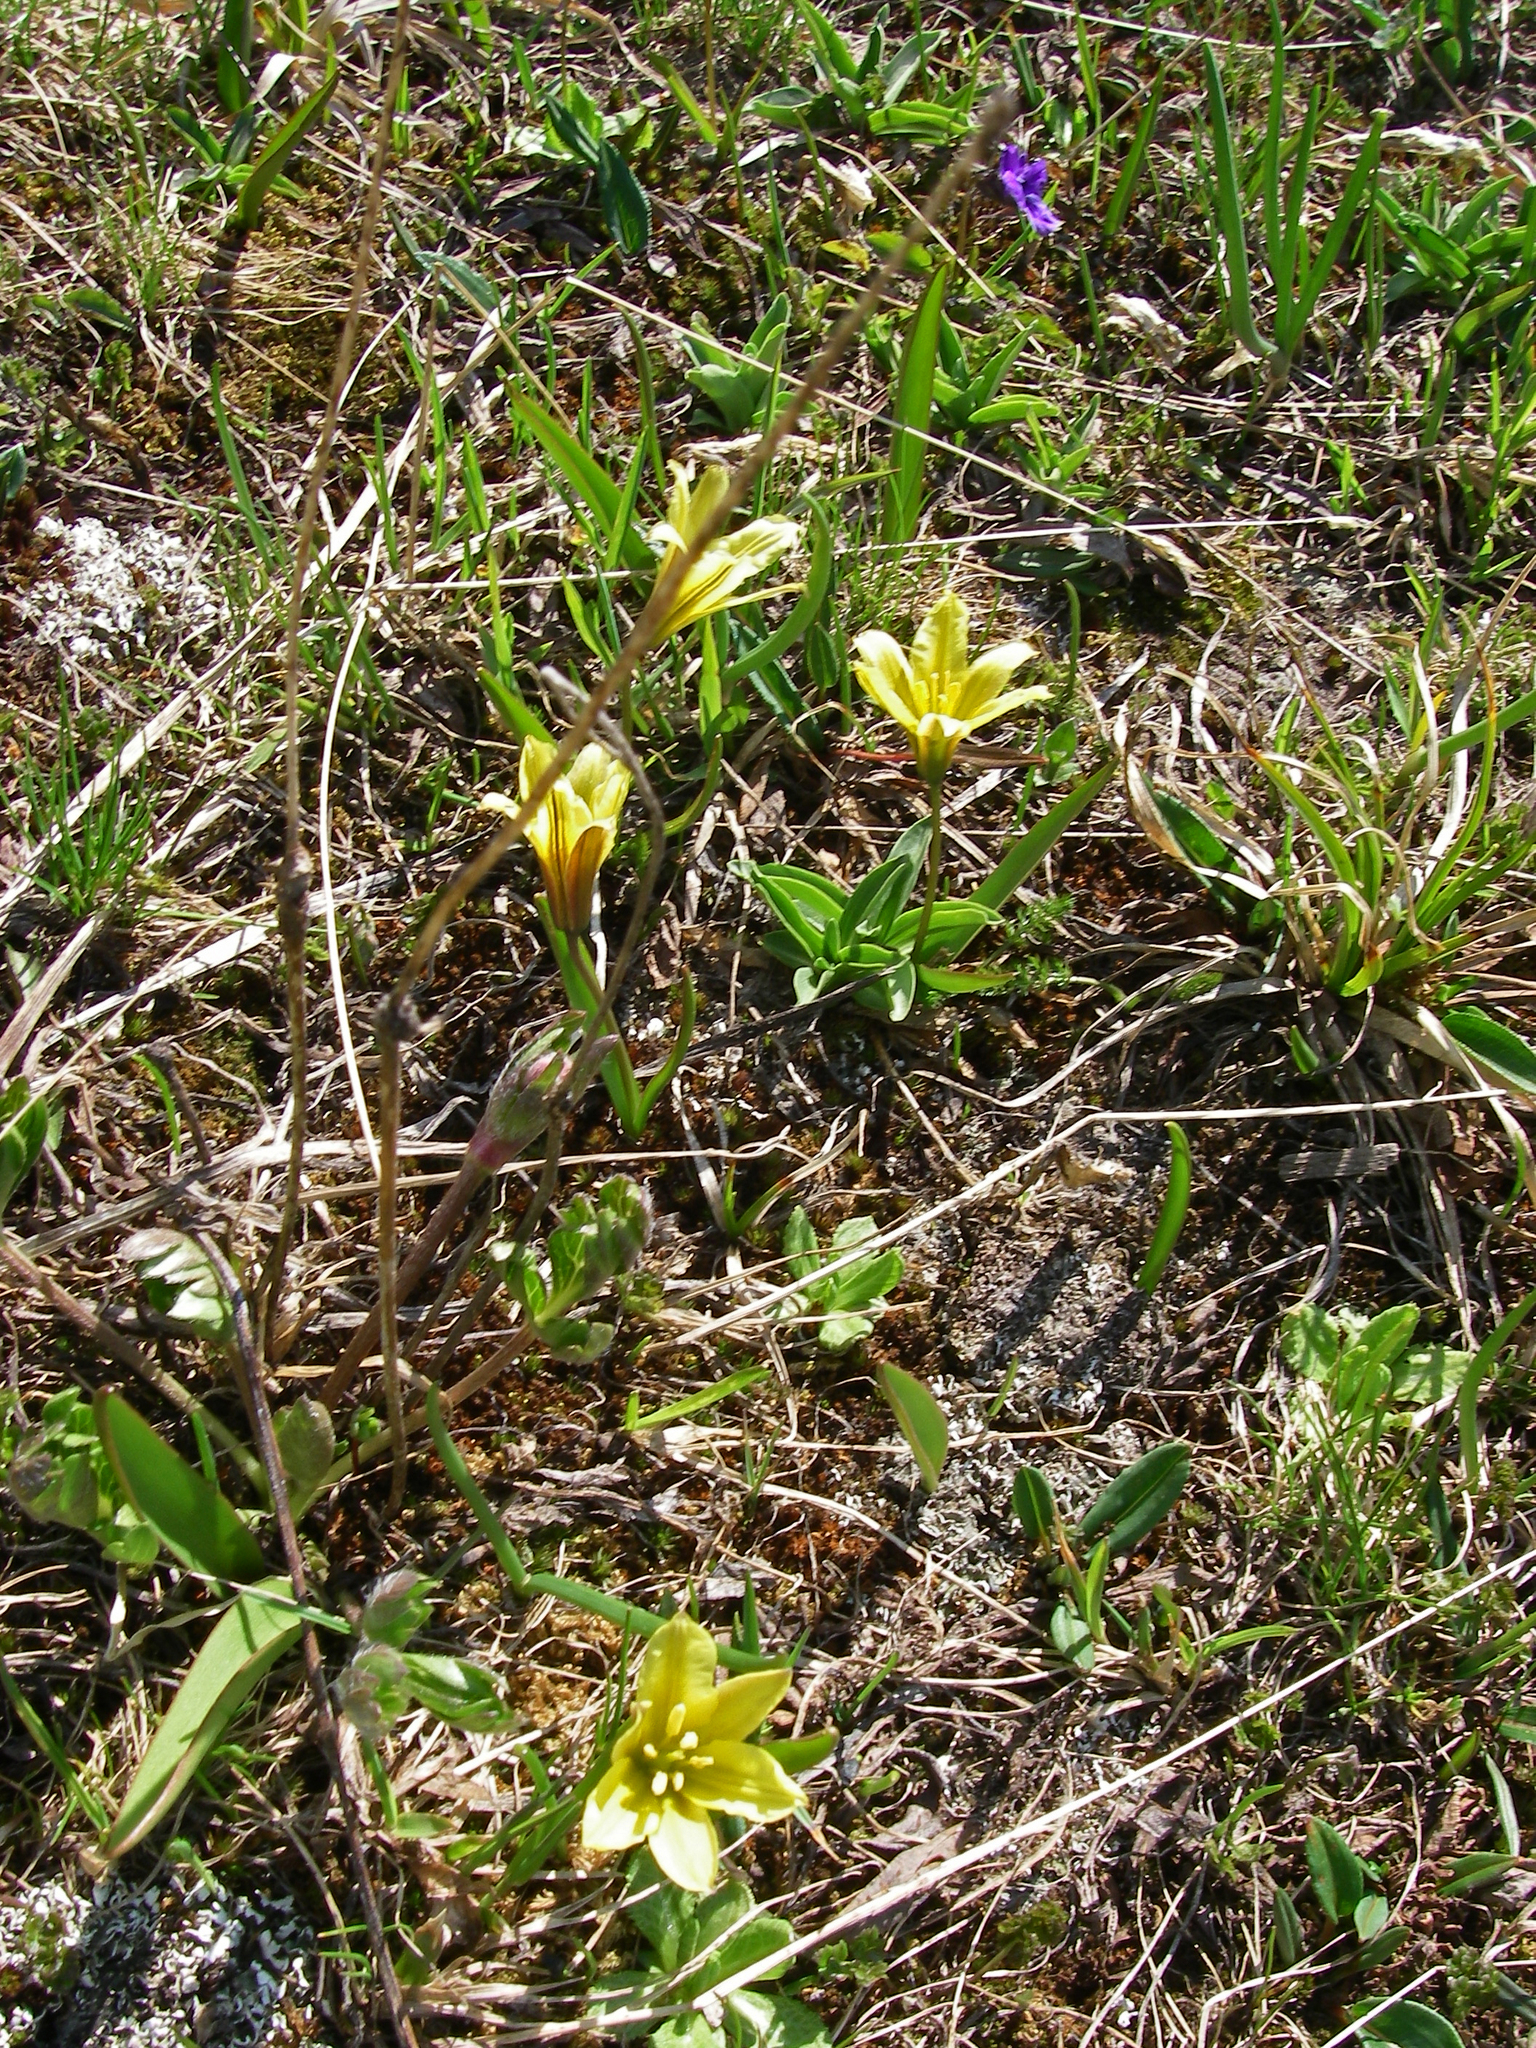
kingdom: Plantae
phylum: Tracheophyta
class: Liliopsida
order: Liliales
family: Liliaceae
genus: Tulipa
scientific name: Tulipa heterophylla
